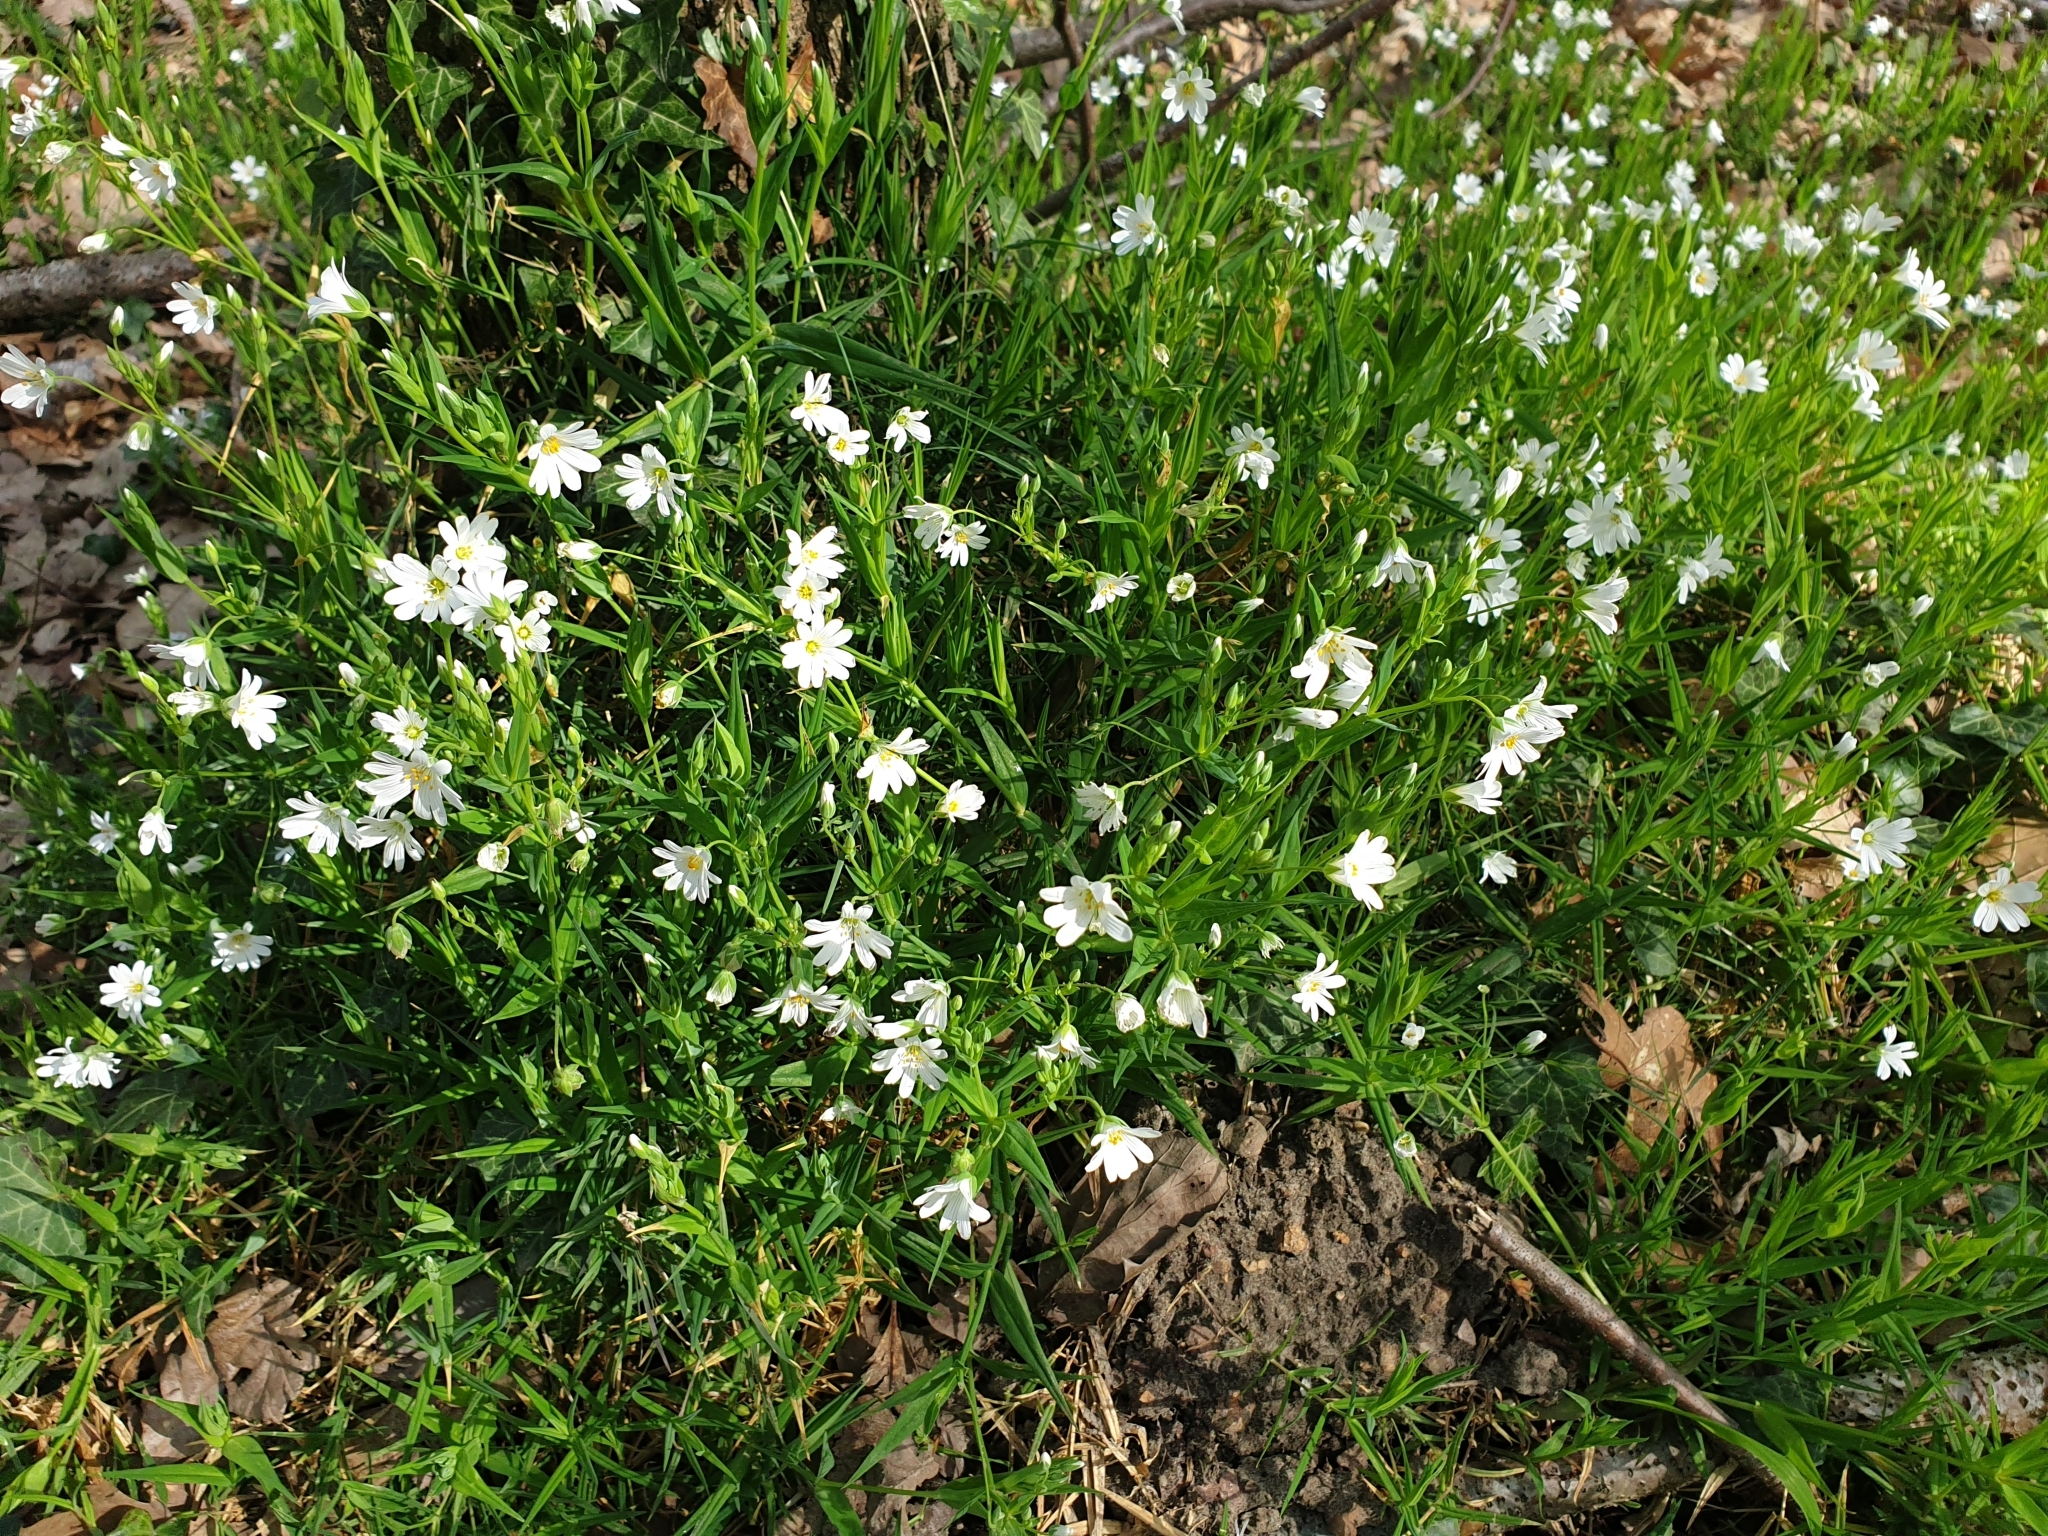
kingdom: Plantae
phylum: Tracheophyta
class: Magnoliopsida
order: Caryophyllales
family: Caryophyllaceae
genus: Rabelera
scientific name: Rabelera holostea
